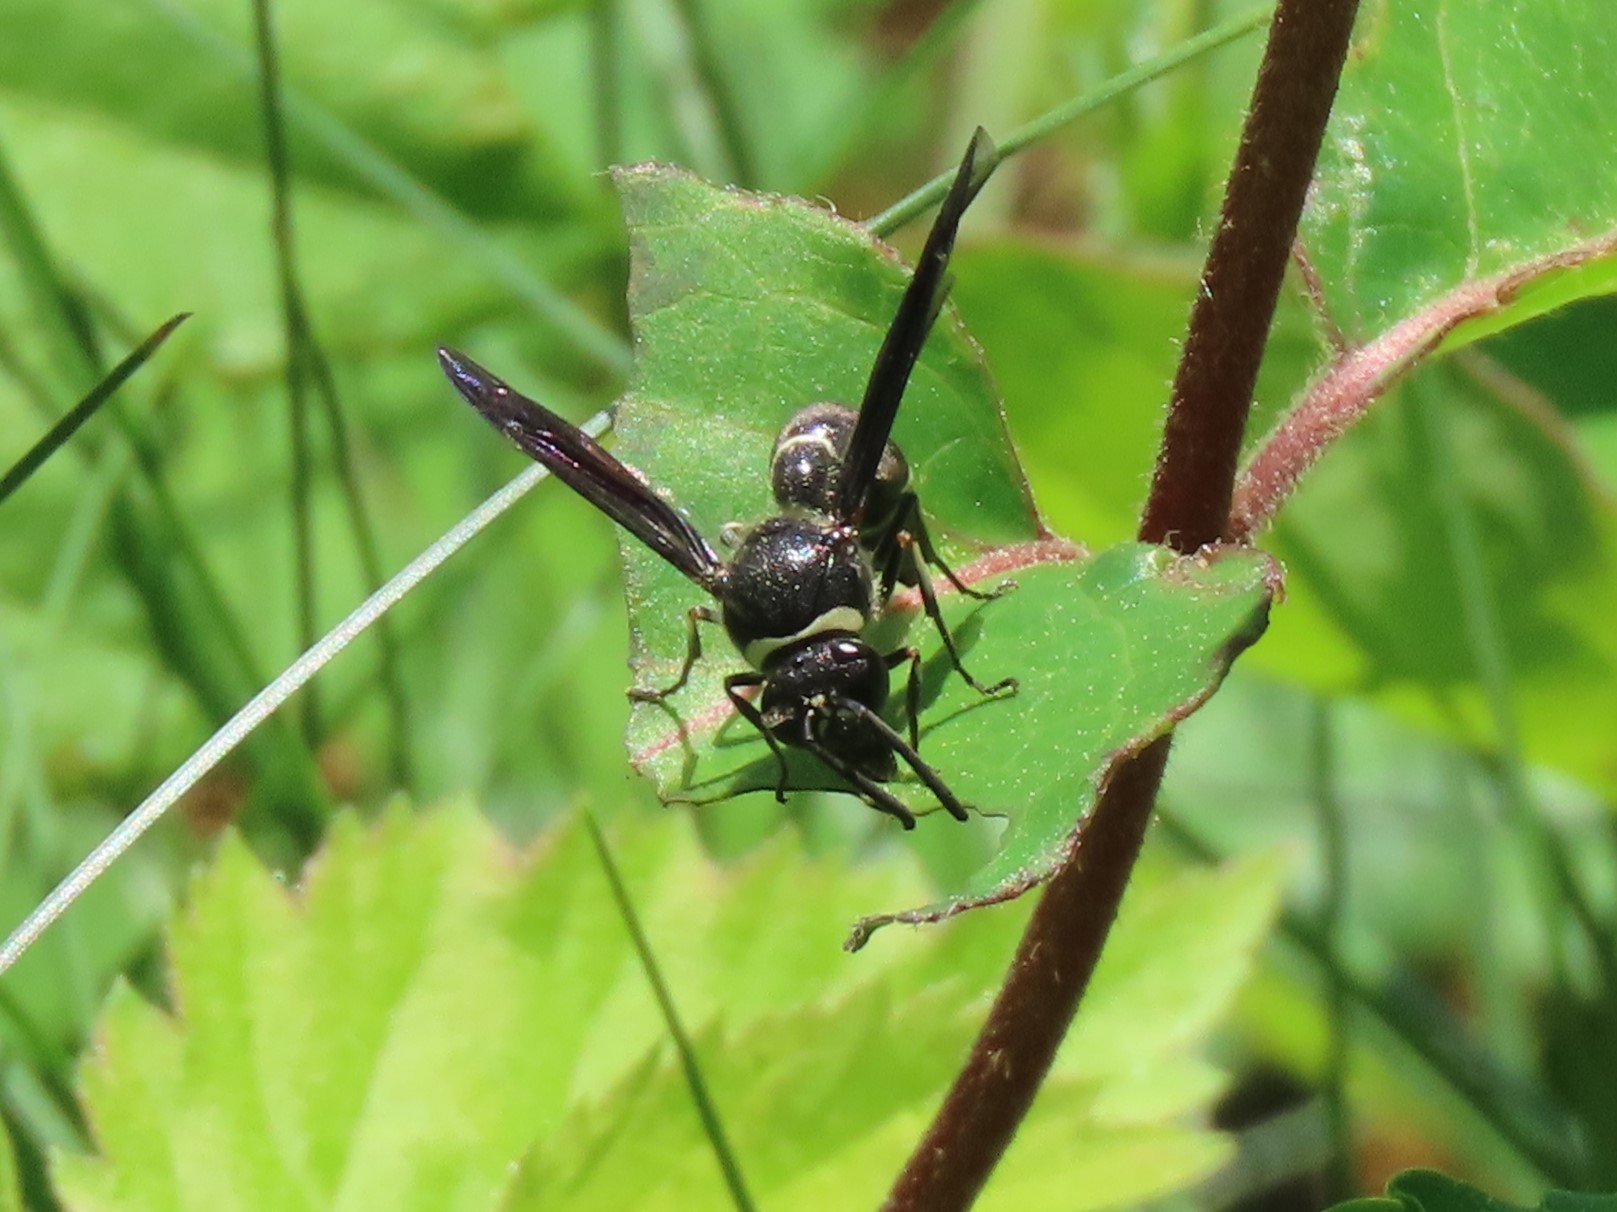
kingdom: Animalia
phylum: Arthropoda
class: Insecta
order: Hymenoptera
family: Vespidae
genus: Eumenes
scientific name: Eumenes fraternus
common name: Fraternal potter wasp
